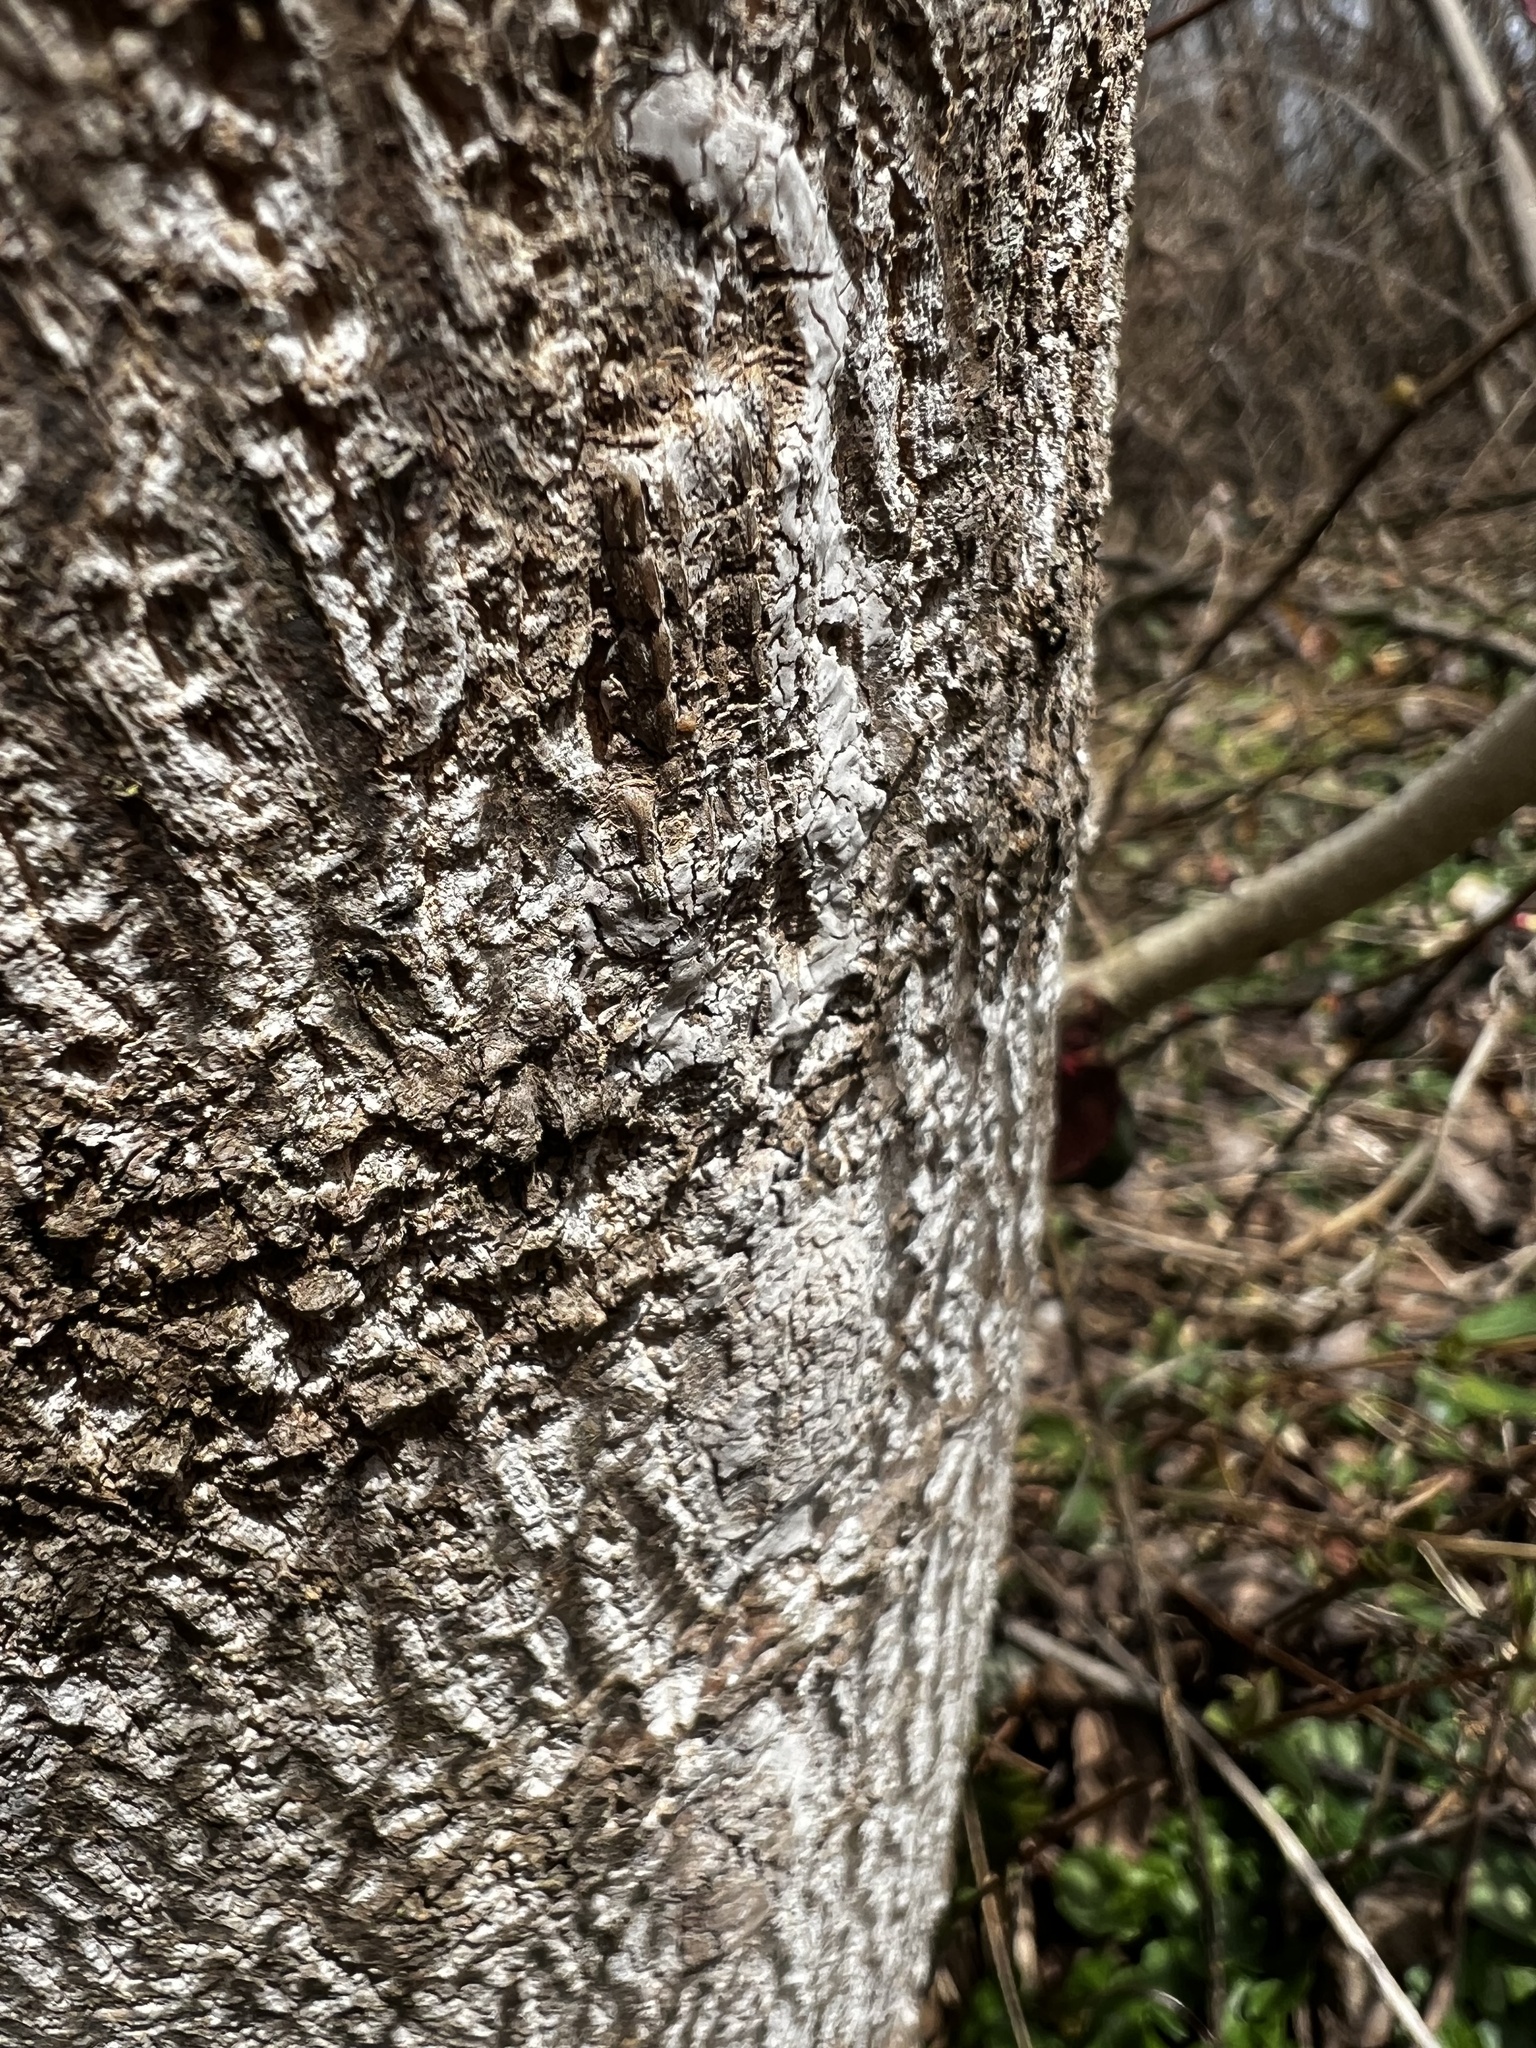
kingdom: Animalia
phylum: Arthropoda
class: Insecta
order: Hemiptera
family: Fulgoridae
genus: Lycorma
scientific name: Lycorma delicatula
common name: Spotted lanternfly
